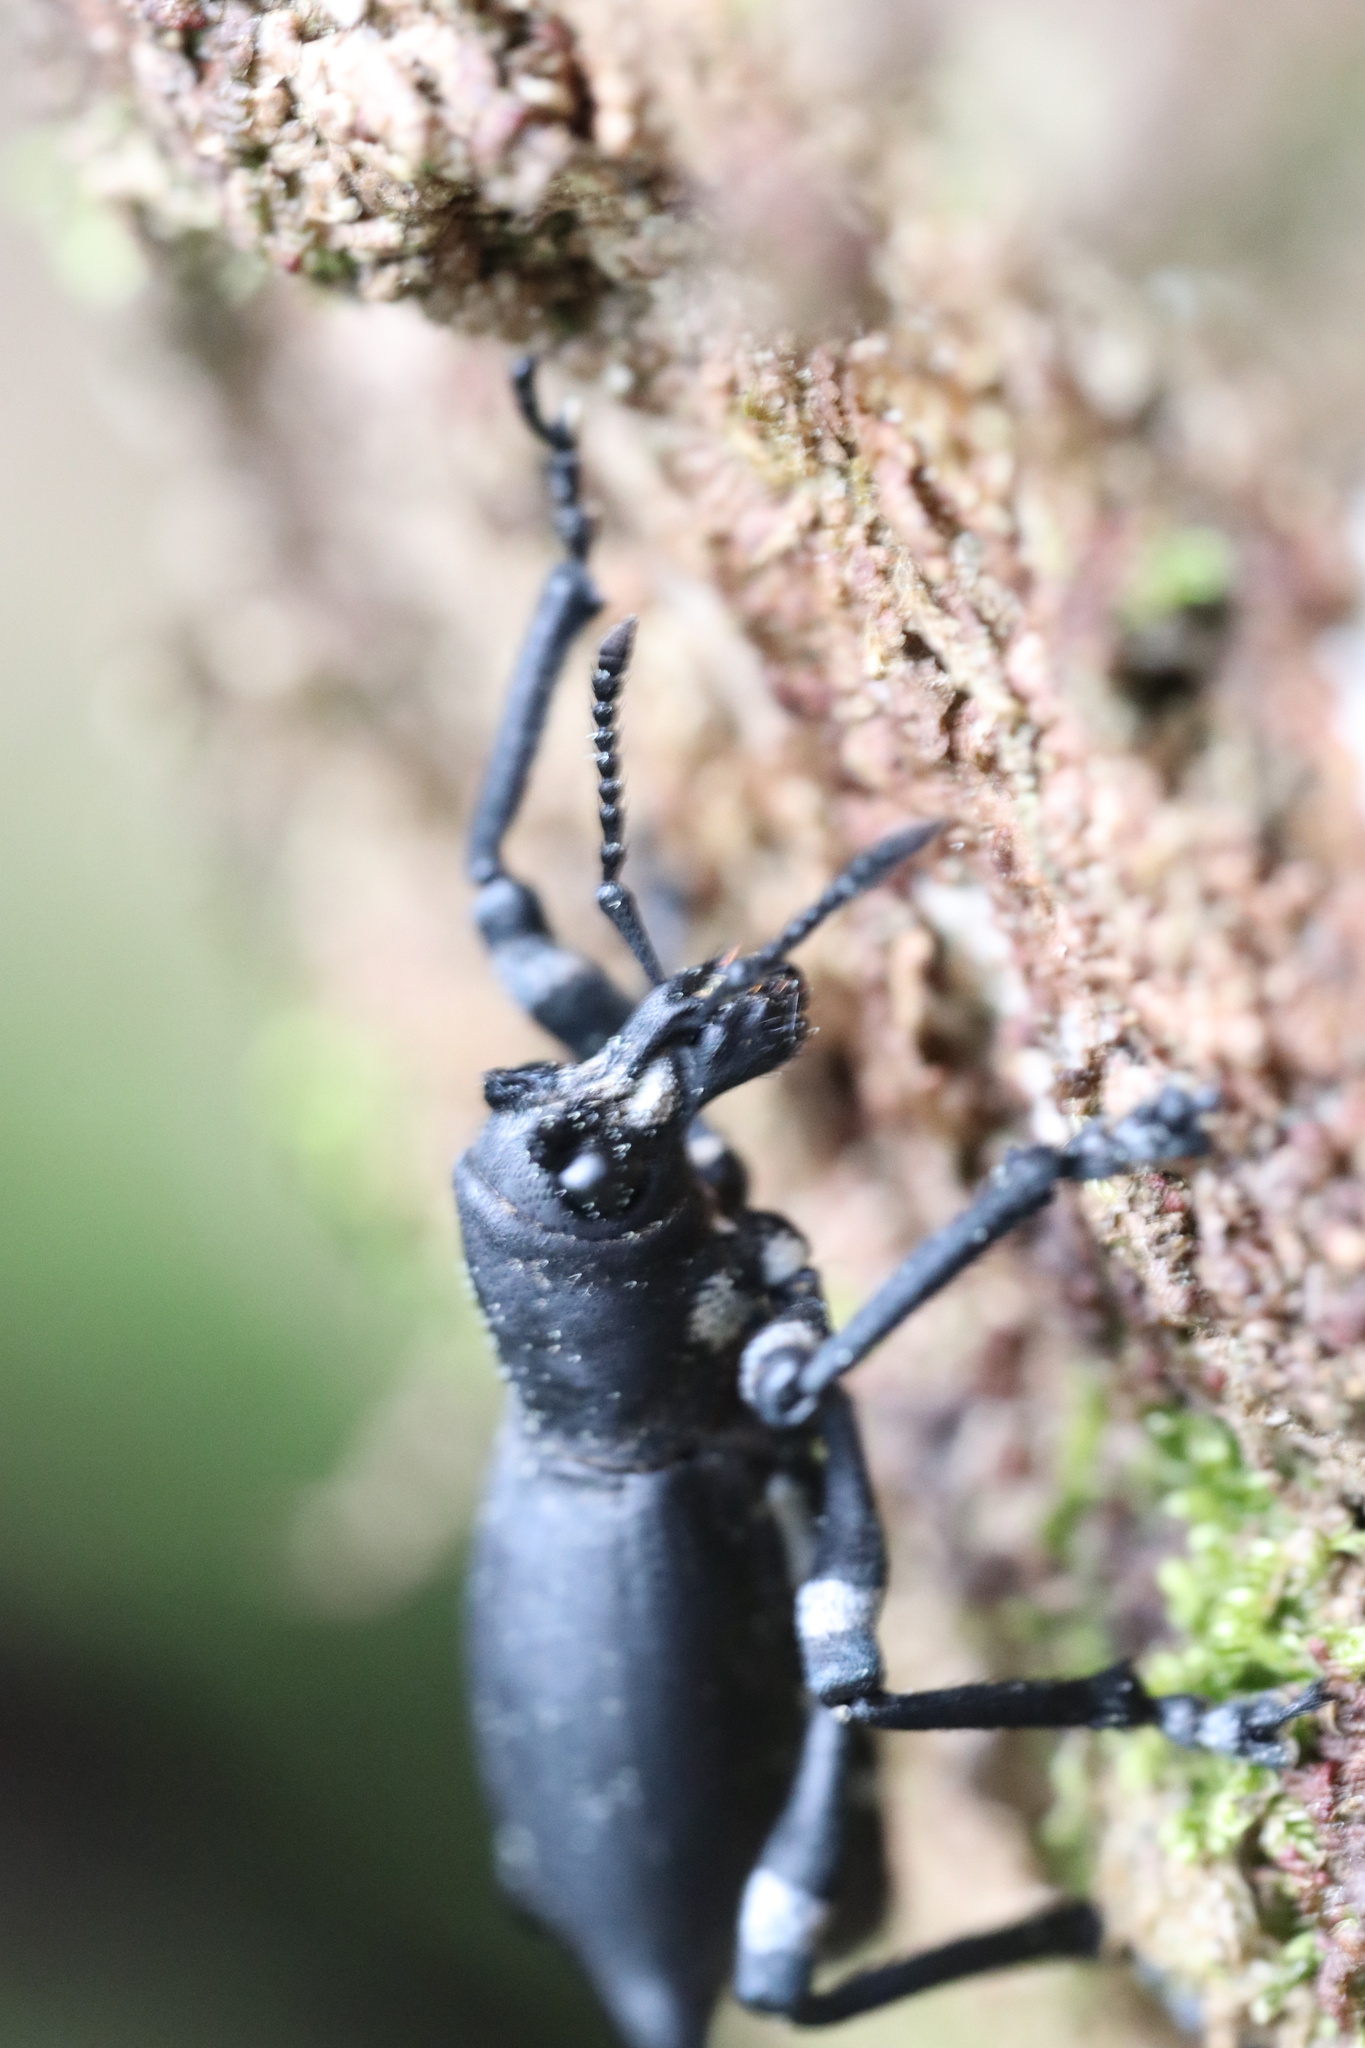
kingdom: Animalia
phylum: Arthropoda
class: Insecta
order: Coleoptera
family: Curculionidae
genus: Aegorhinus
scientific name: Aegorhinus
